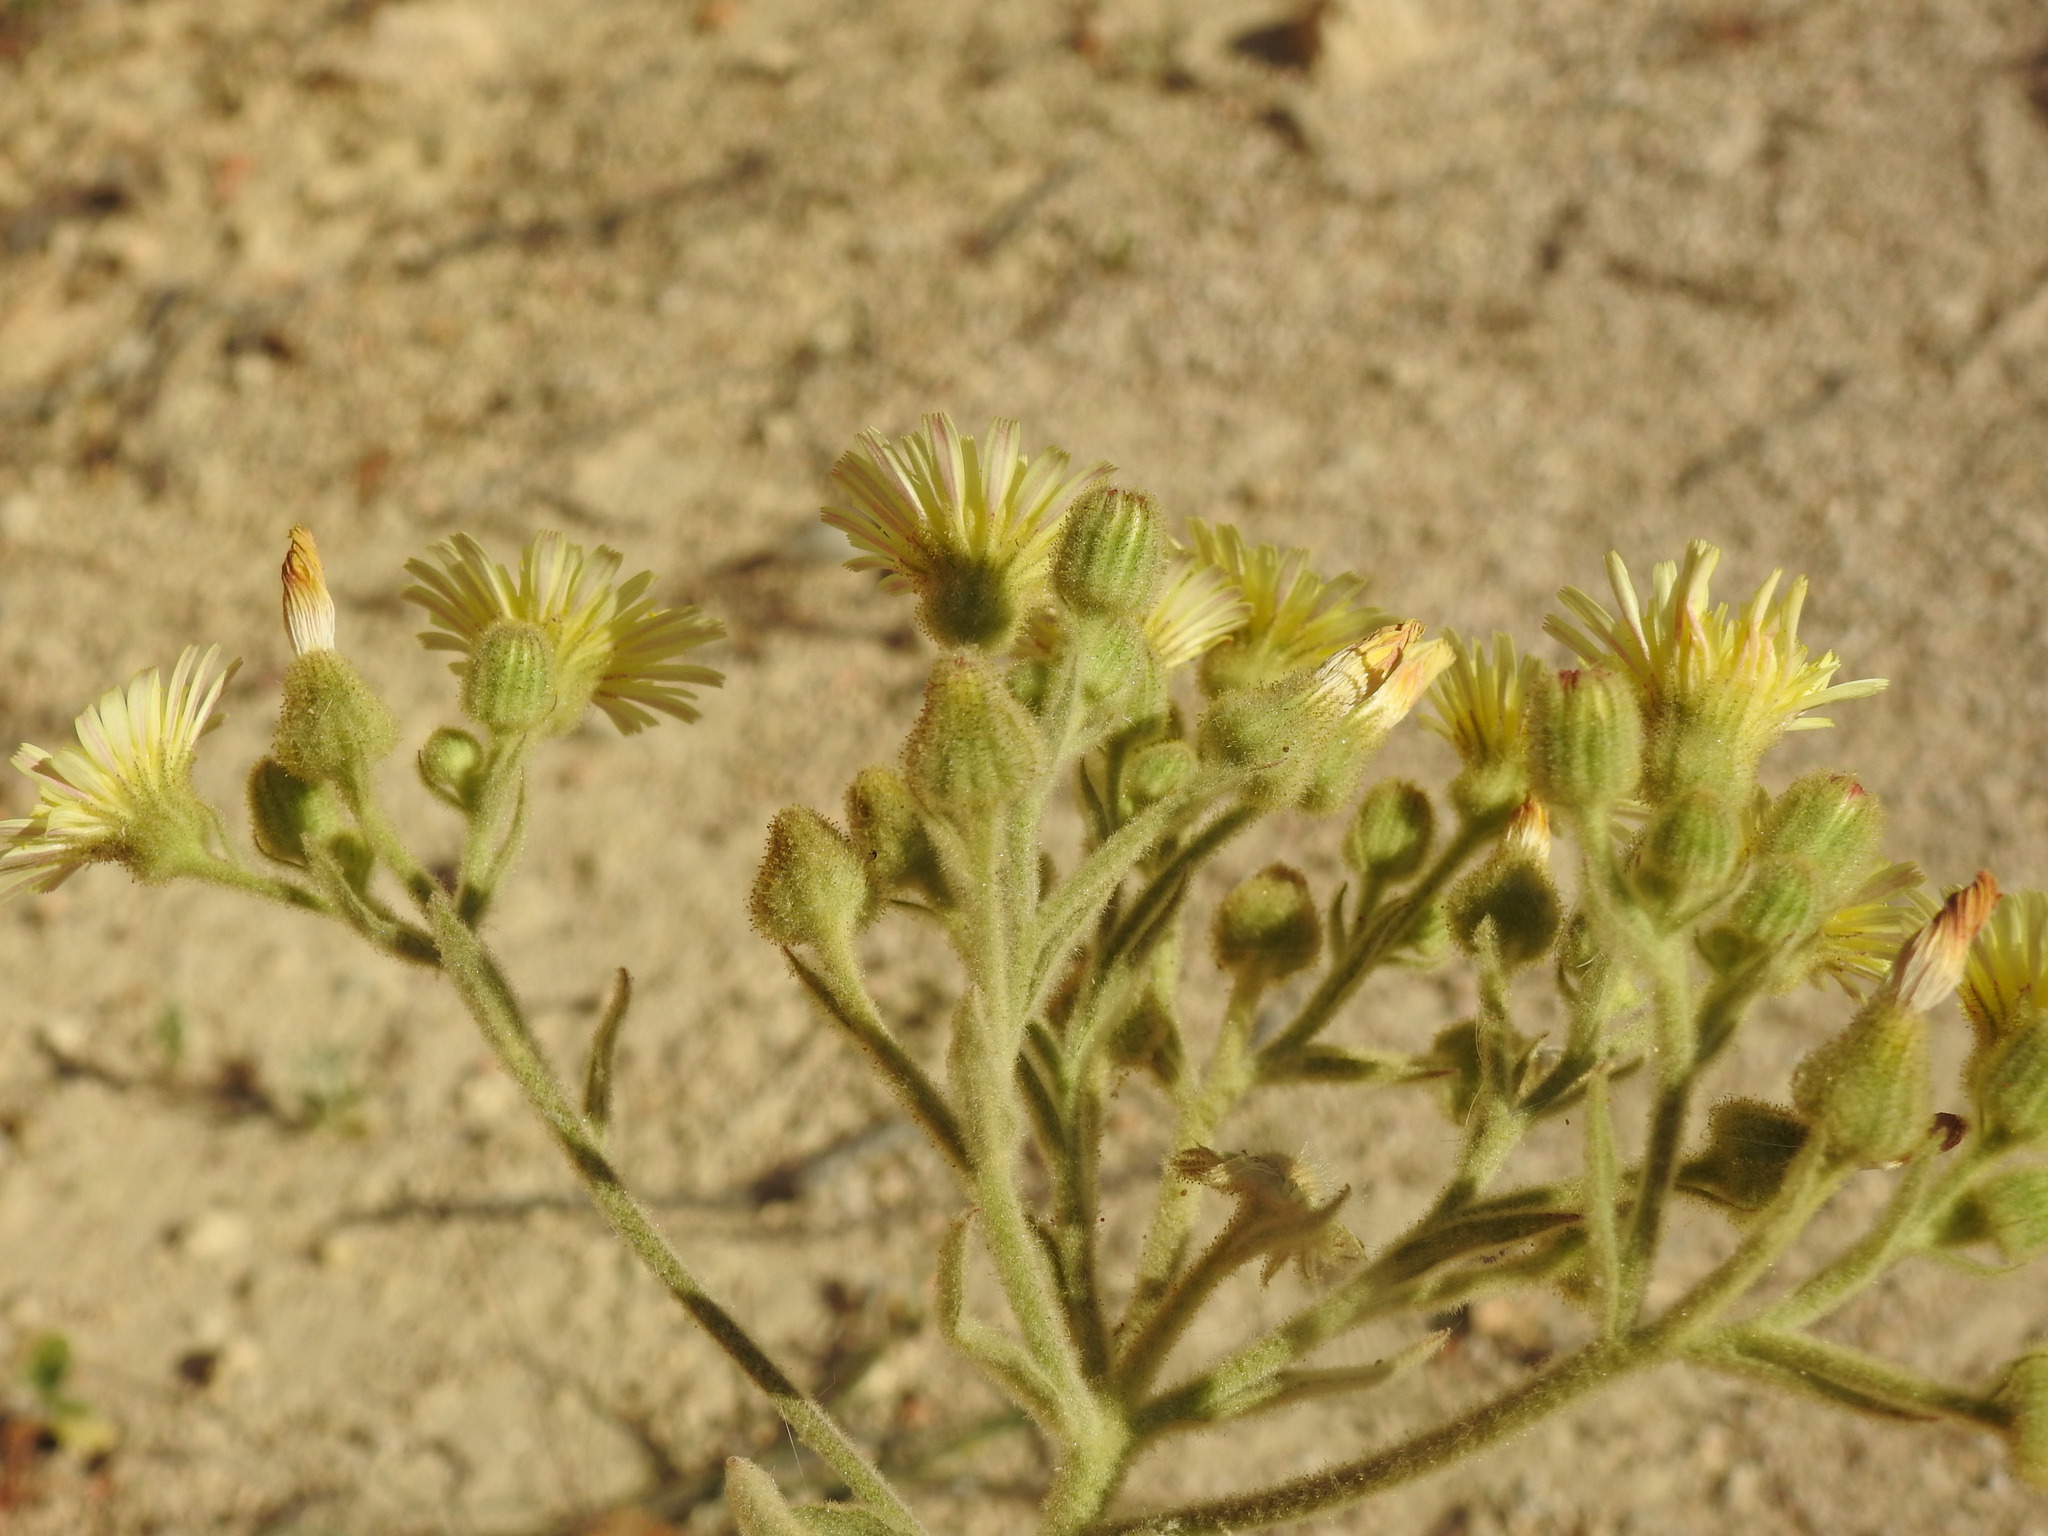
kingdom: Plantae
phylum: Tracheophyta
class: Magnoliopsida
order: Asterales
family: Asteraceae
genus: Andryala
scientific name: Andryala integrifolia
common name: Common andryala
